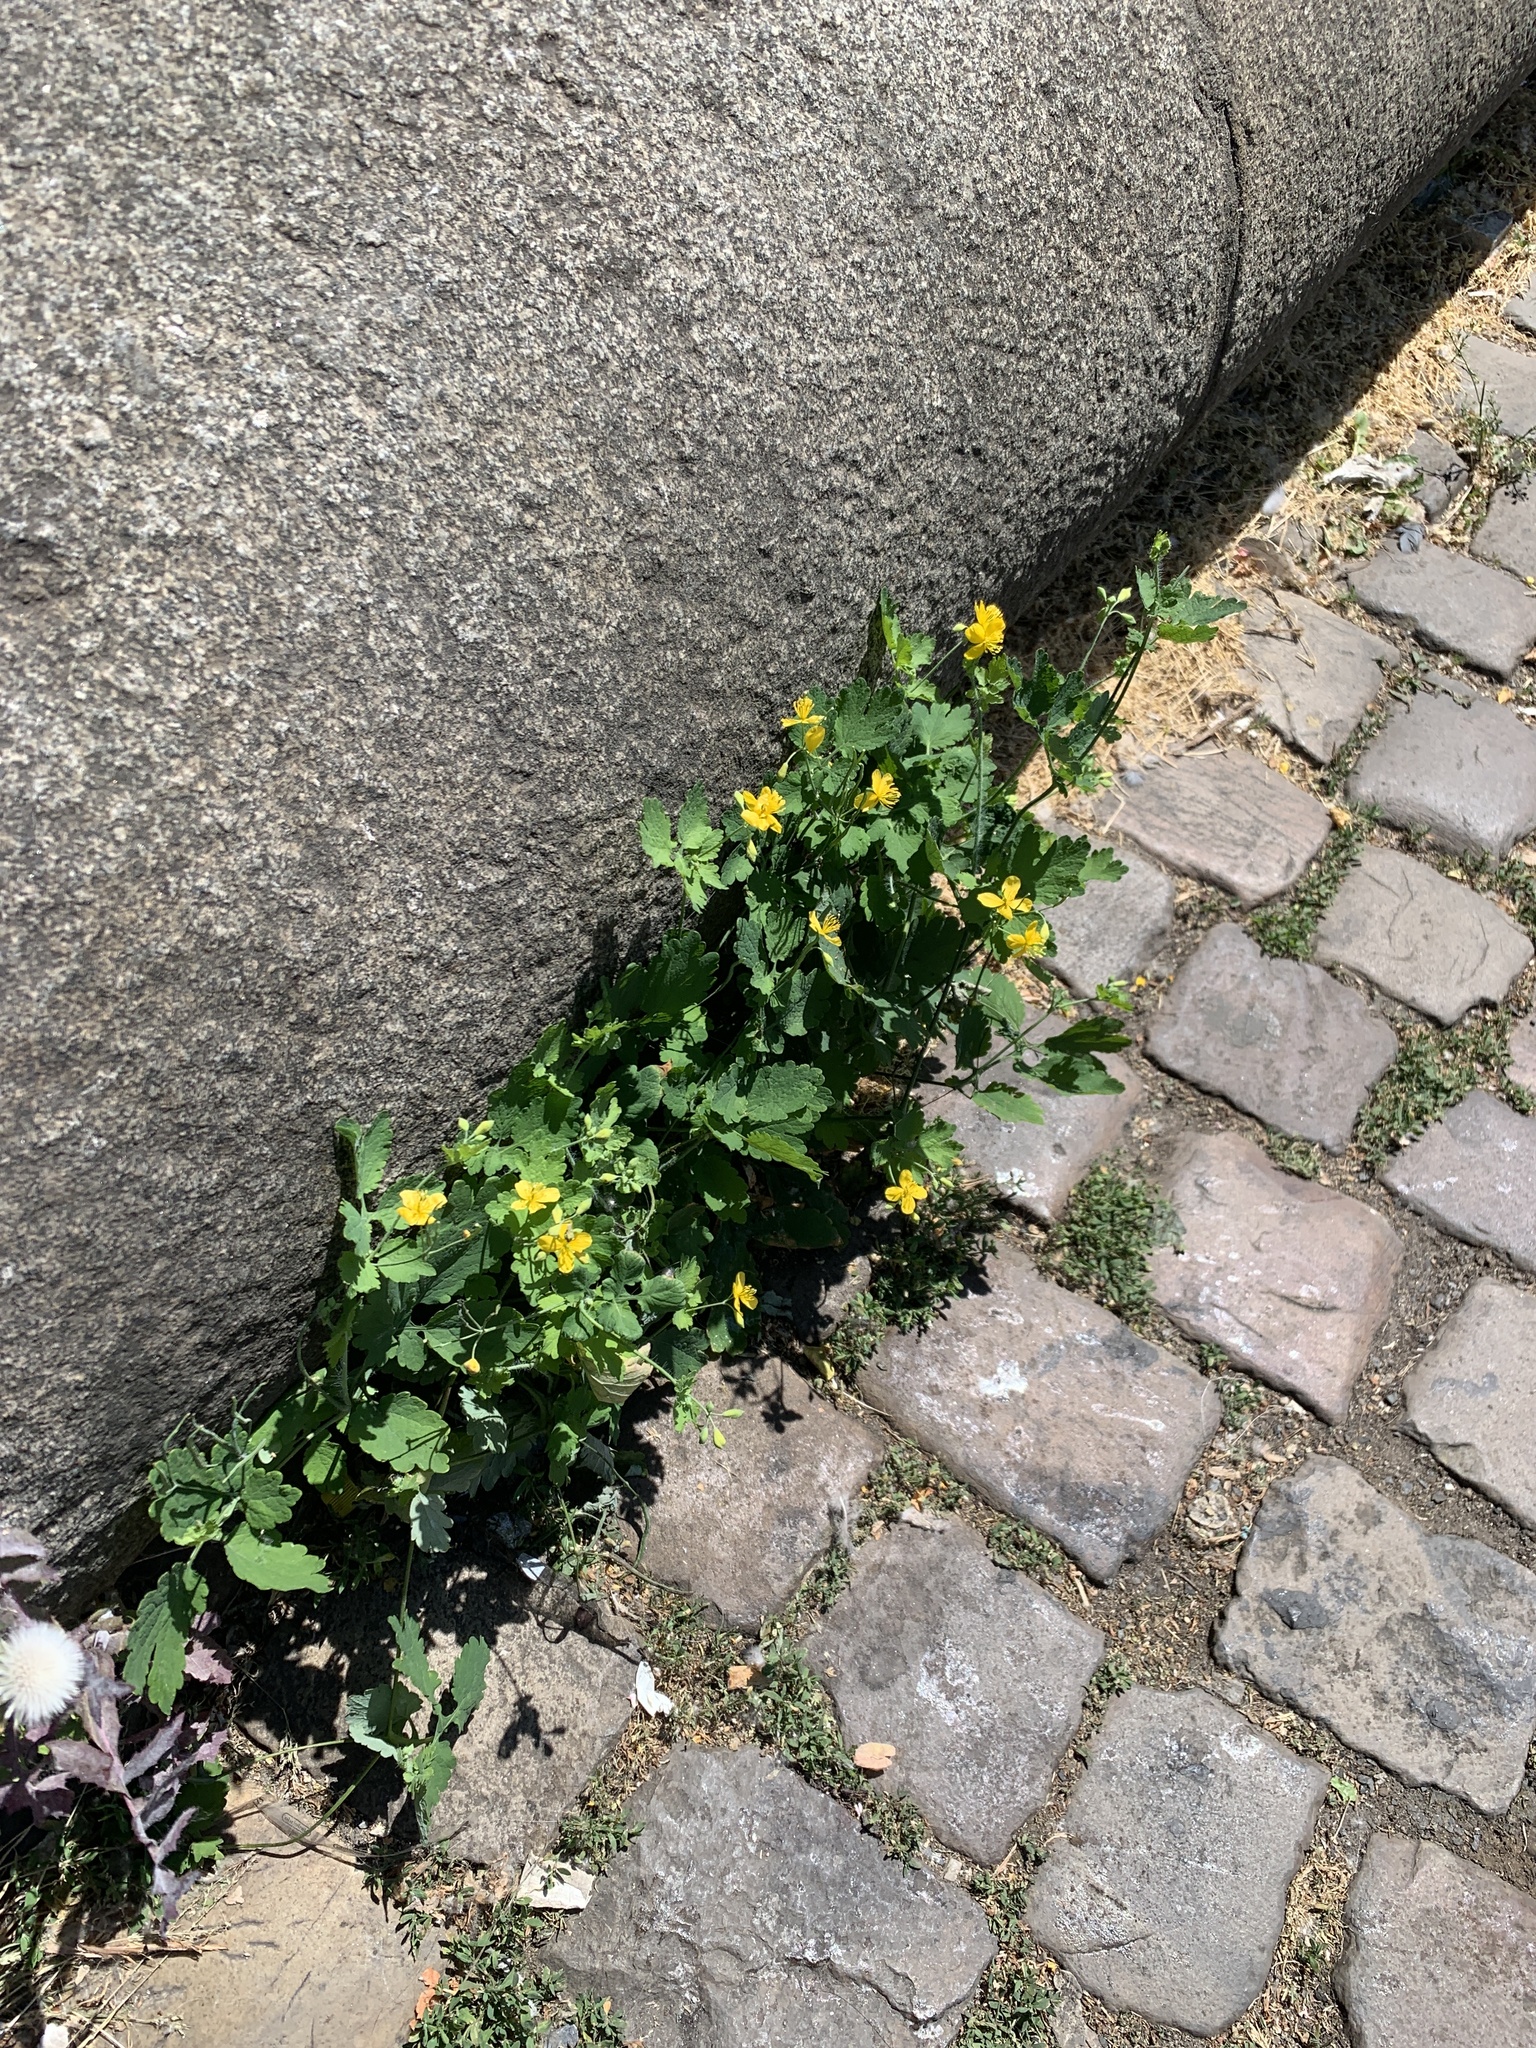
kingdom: Plantae
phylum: Tracheophyta
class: Magnoliopsida
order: Ranunculales
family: Papaveraceae
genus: Chelidonium
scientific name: Chelidonium majus
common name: Greater celandine
